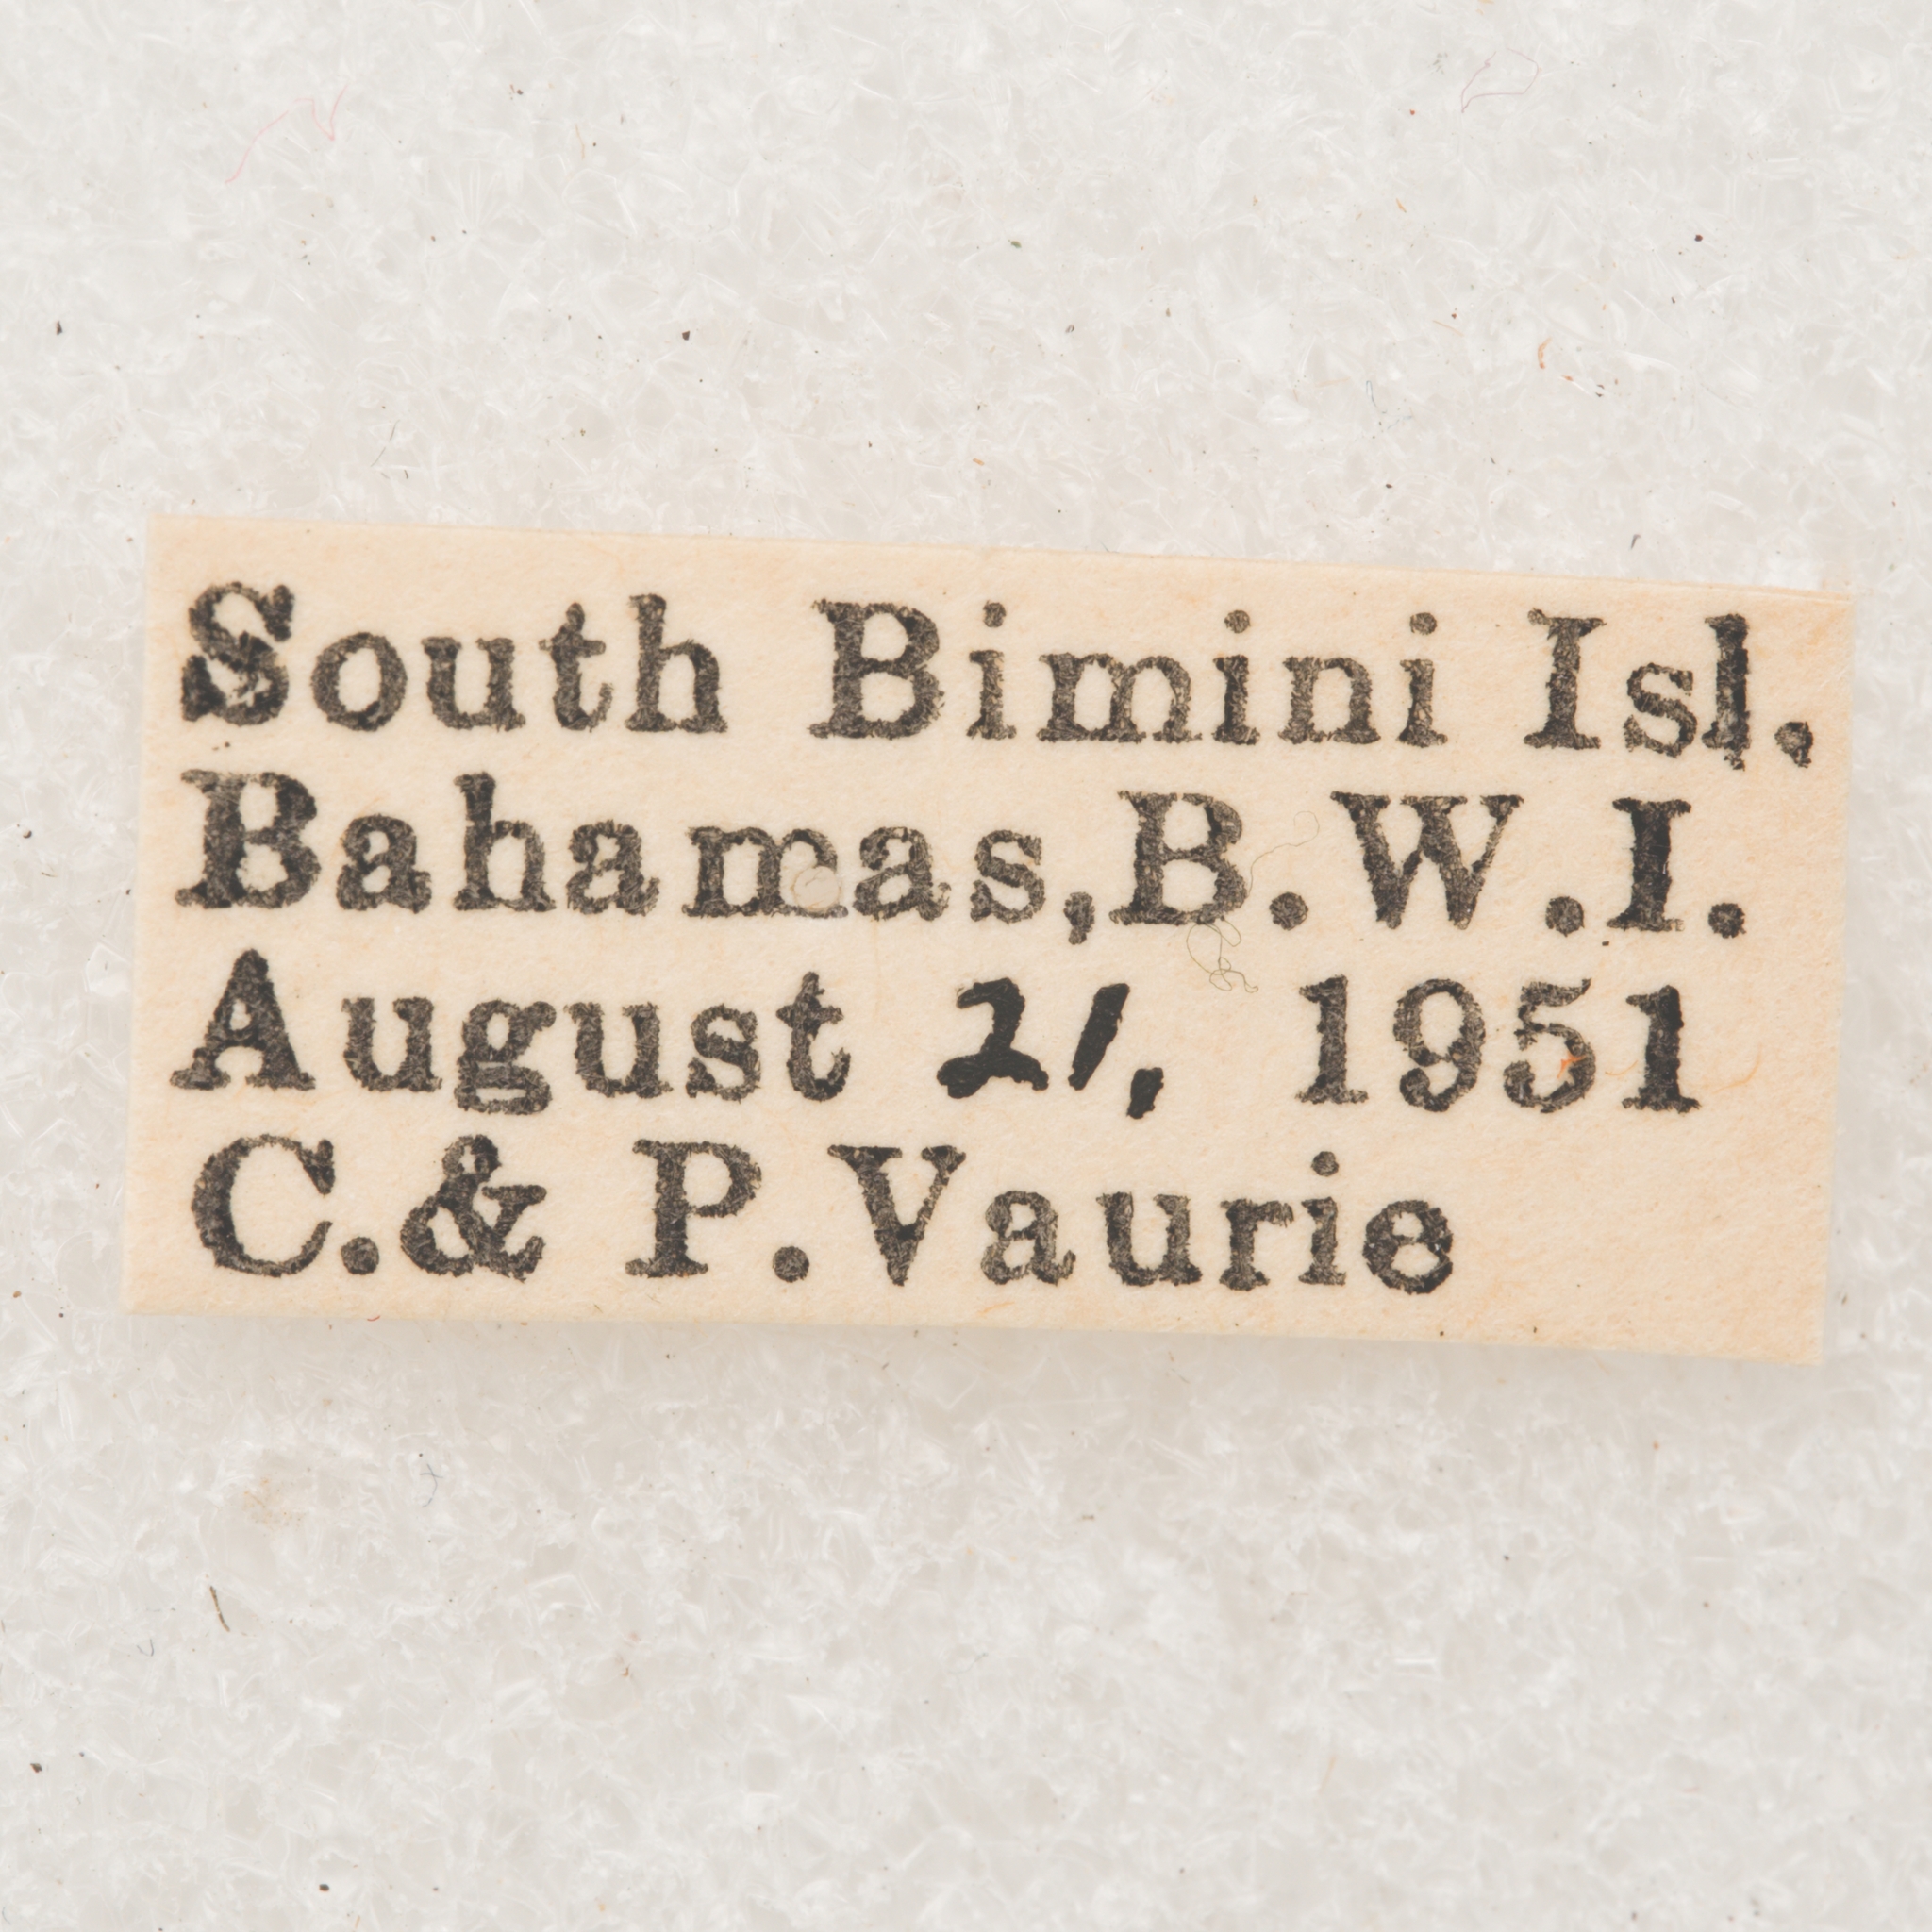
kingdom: Animalia
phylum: Arthropoda
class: Insecta
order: Coleoptera
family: Cerambycidae
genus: Hypomia
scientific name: Hypomia mexicana
